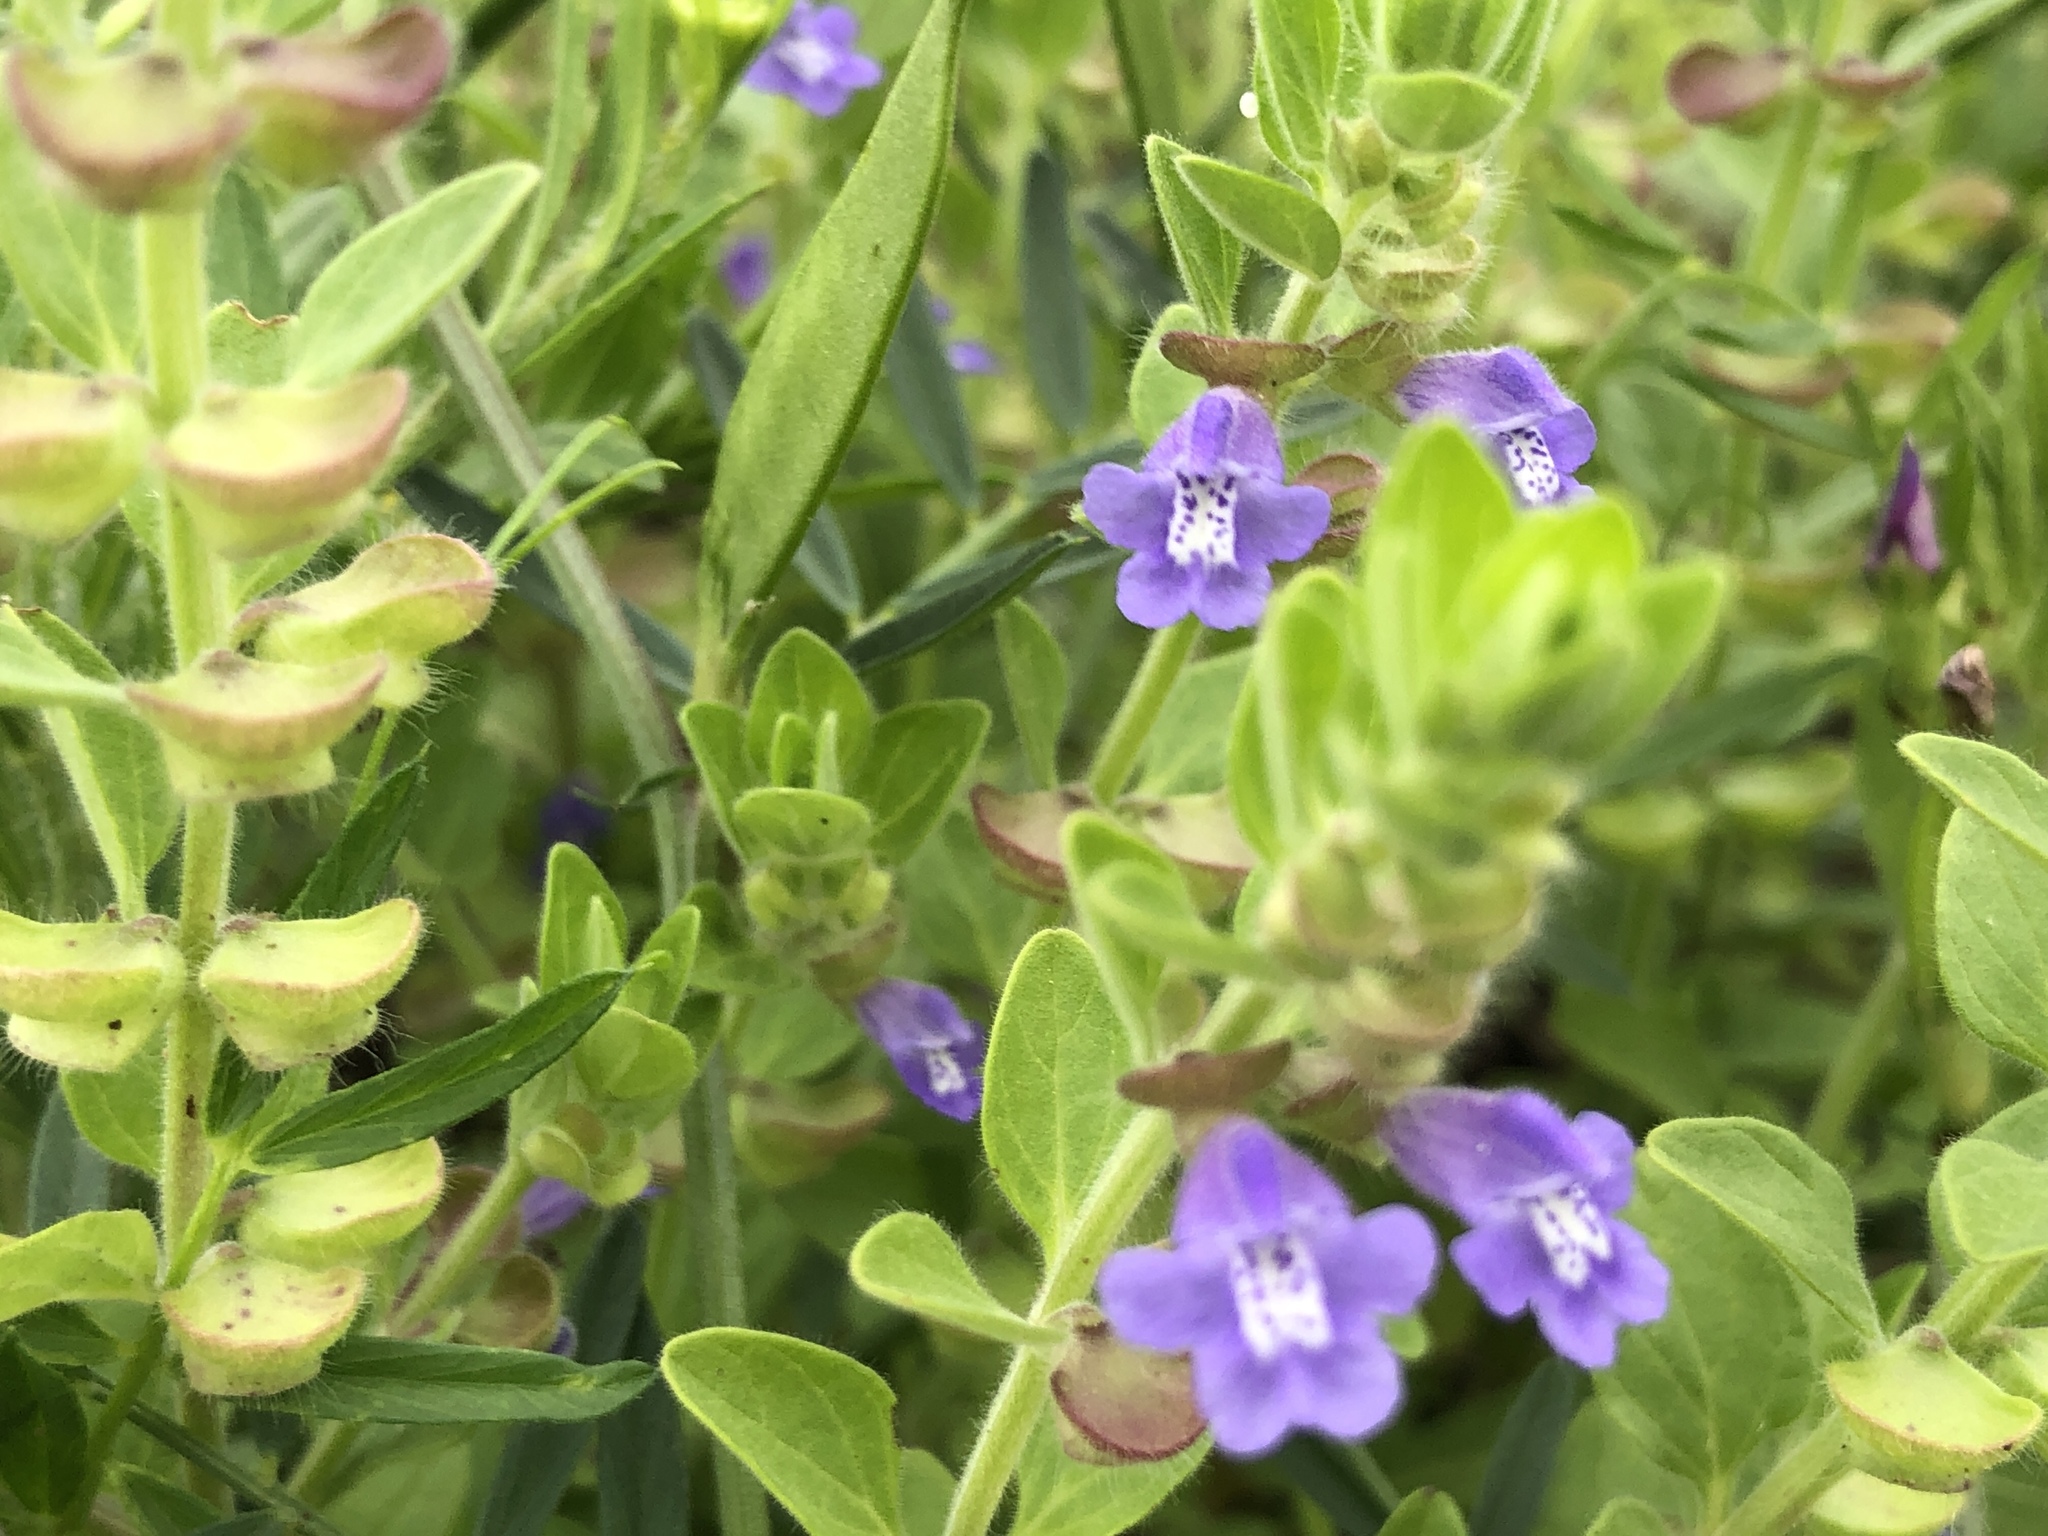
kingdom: Plantae
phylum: Tracheophyta
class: Magnoliopsida
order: Lamiales
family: Lamiaceae
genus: Scutellaria
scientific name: Scutellaria drummondii
